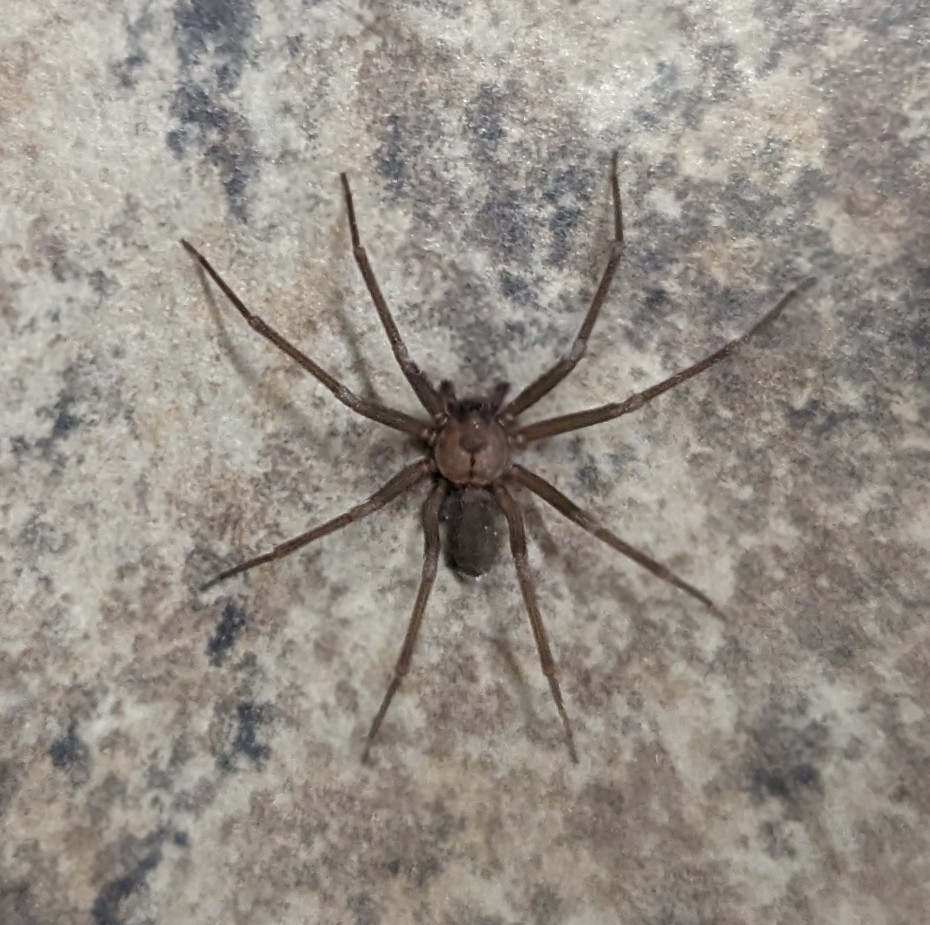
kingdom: Animalia
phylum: Arthropoda
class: Arachnida
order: Araneae
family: Sicariidae
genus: Loxosceles
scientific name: Loxosceles reclusa
